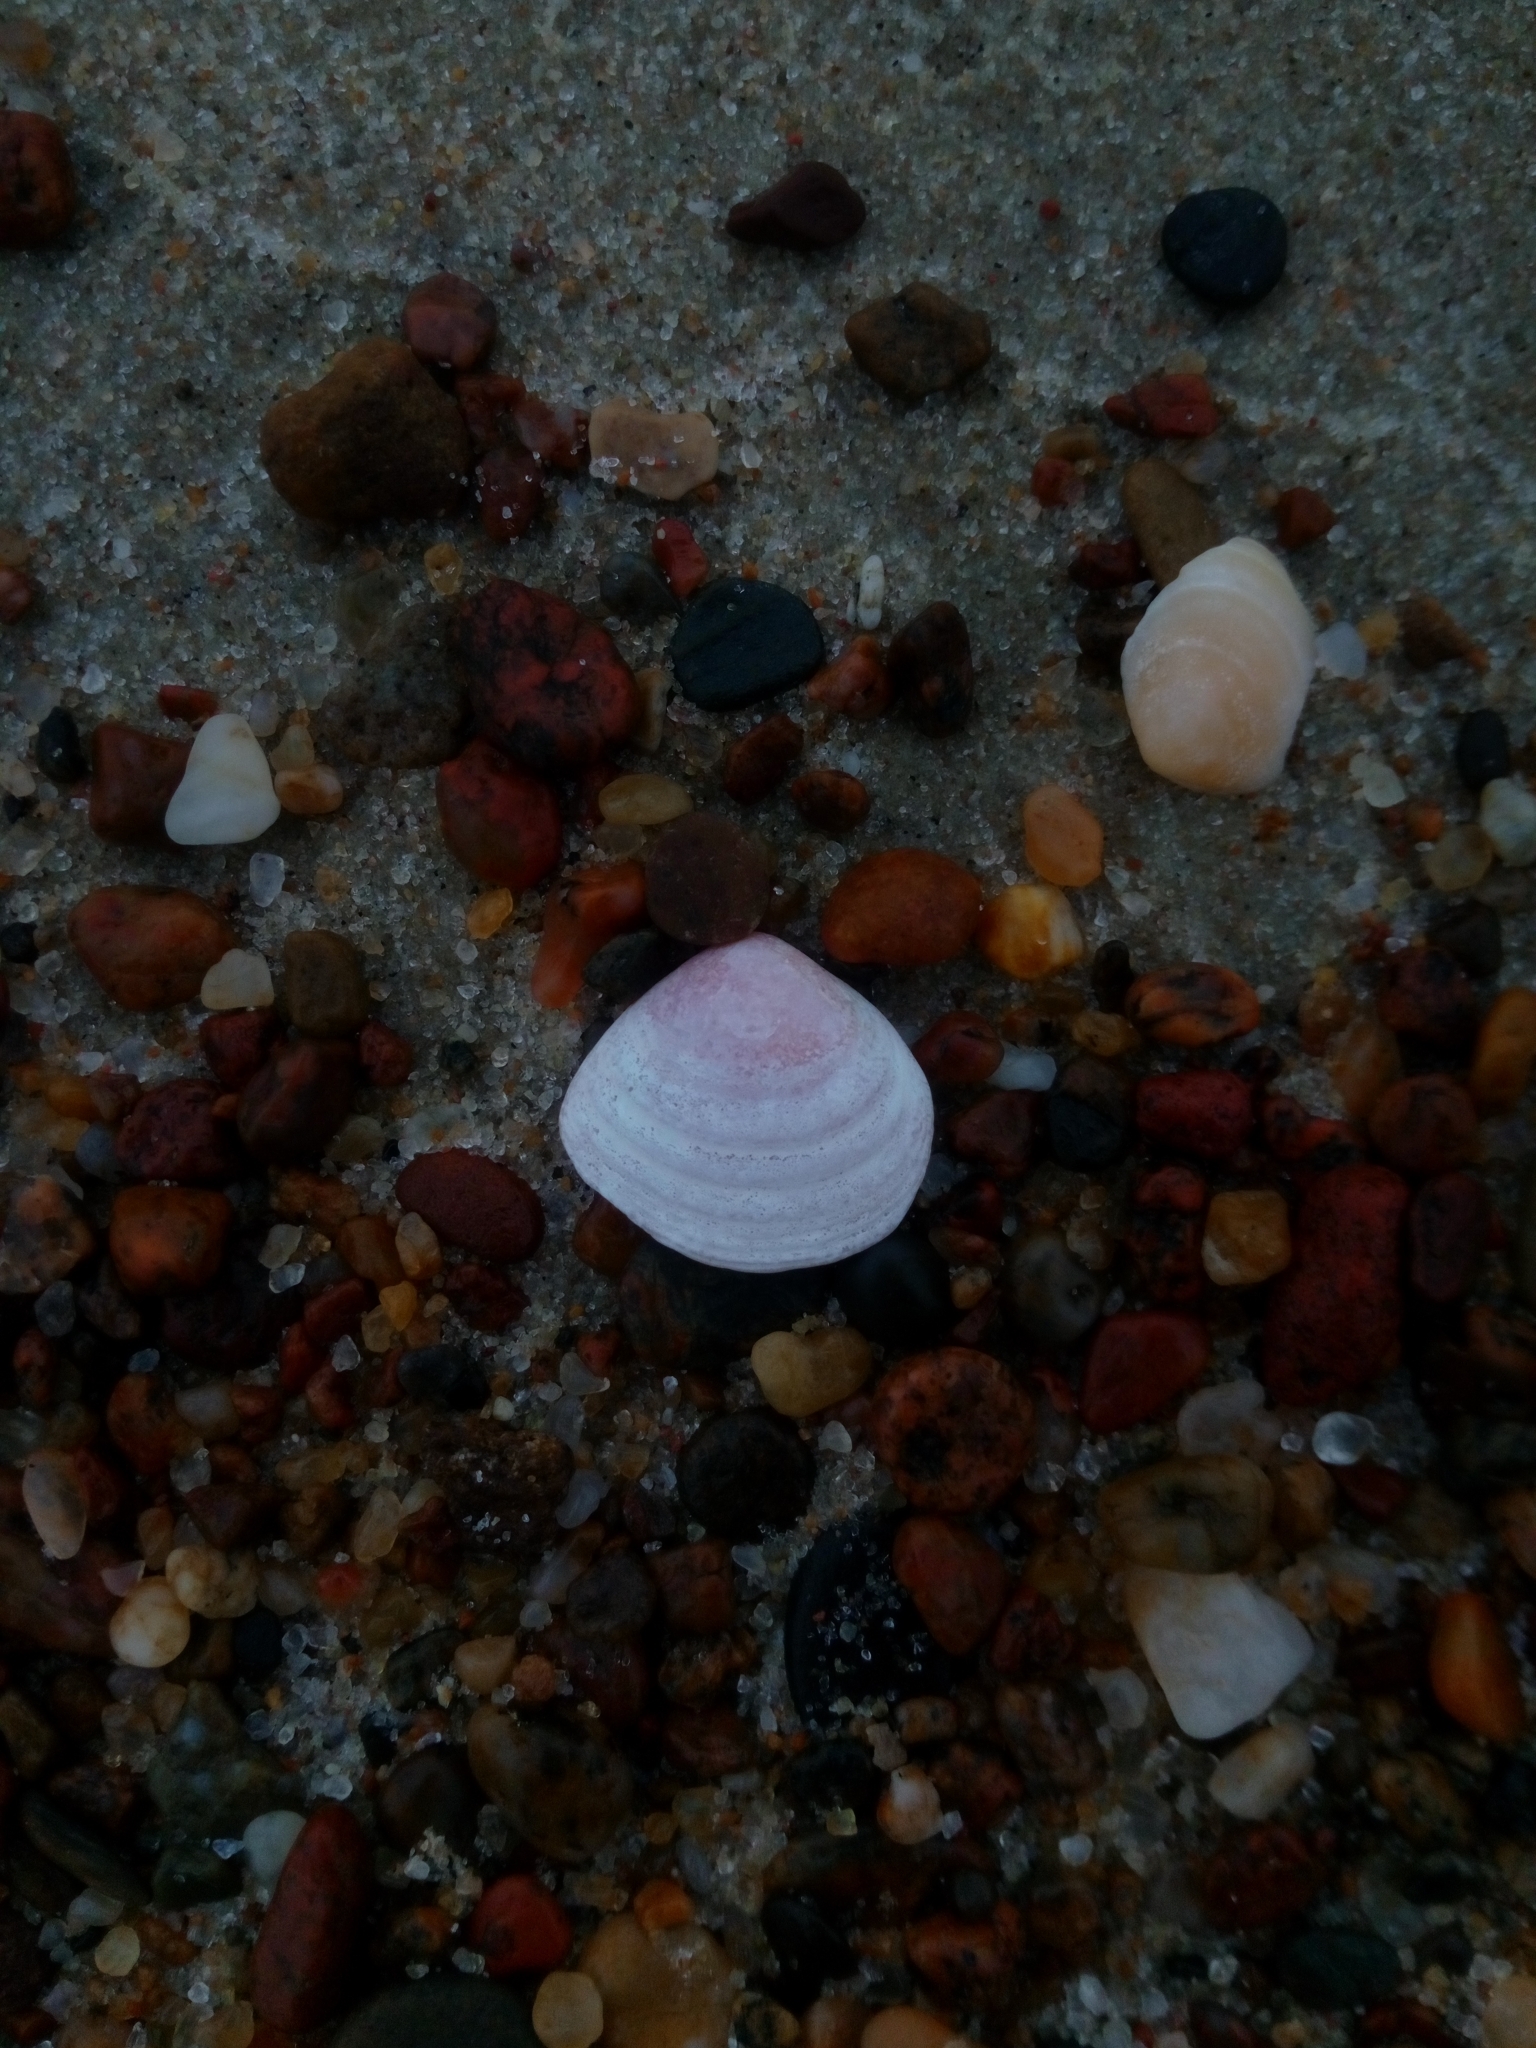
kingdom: Animalia
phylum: Mollusca
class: Bivalvia
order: Cardiida
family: Tellinidae
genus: Macoma
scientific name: Macoma balthica
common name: Baltic tellin
